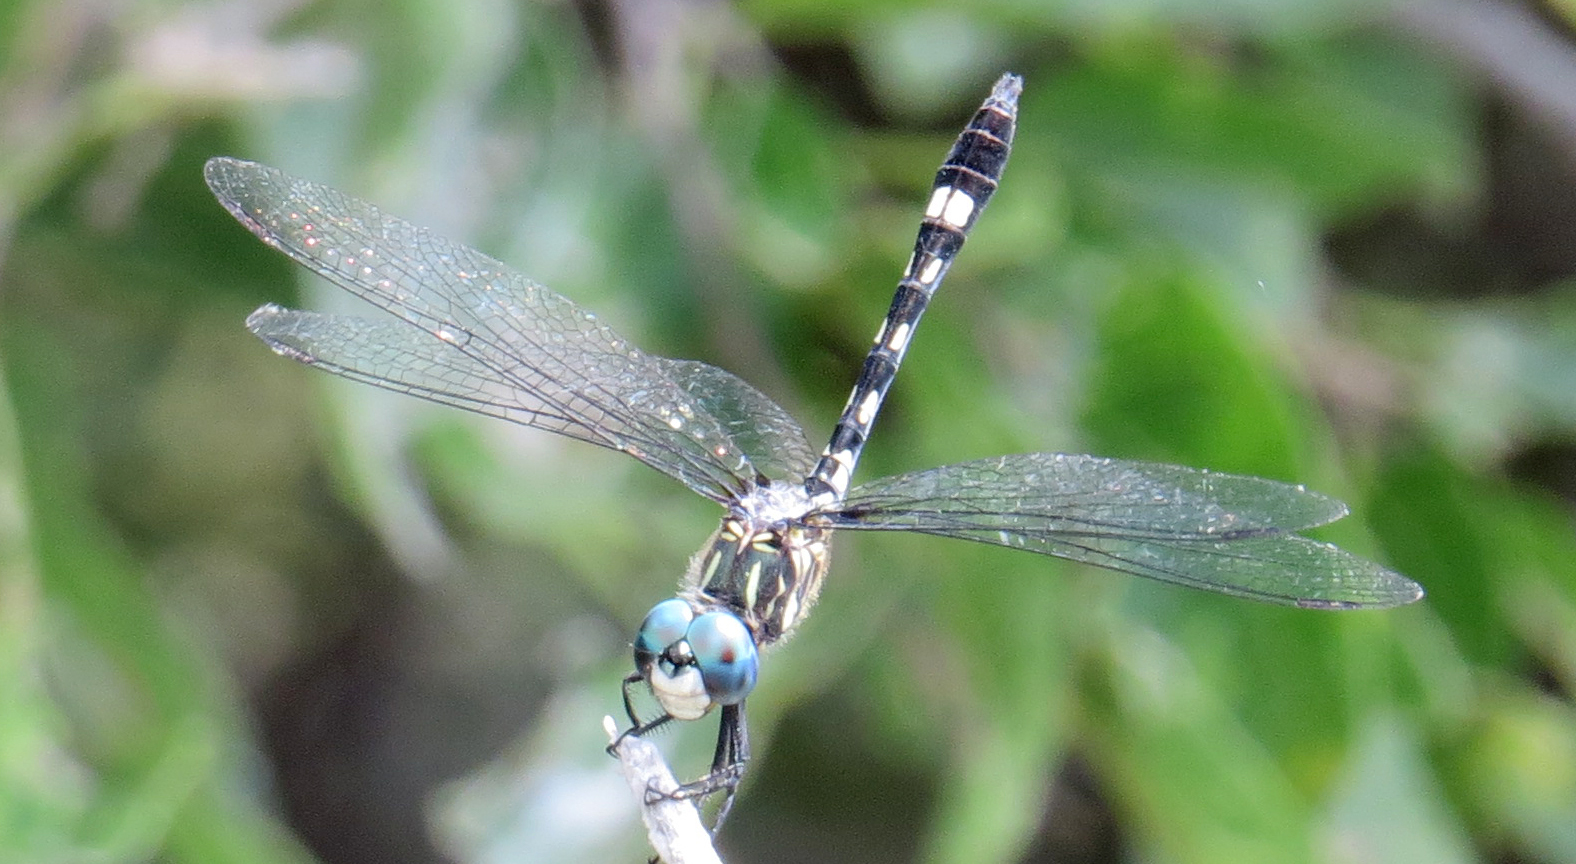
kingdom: Animalia
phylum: Arthropoda
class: Insecta
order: Odonata
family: Libellulidae
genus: Micrathyria
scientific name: Micrathyria hagenii
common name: Thornbush dasher
